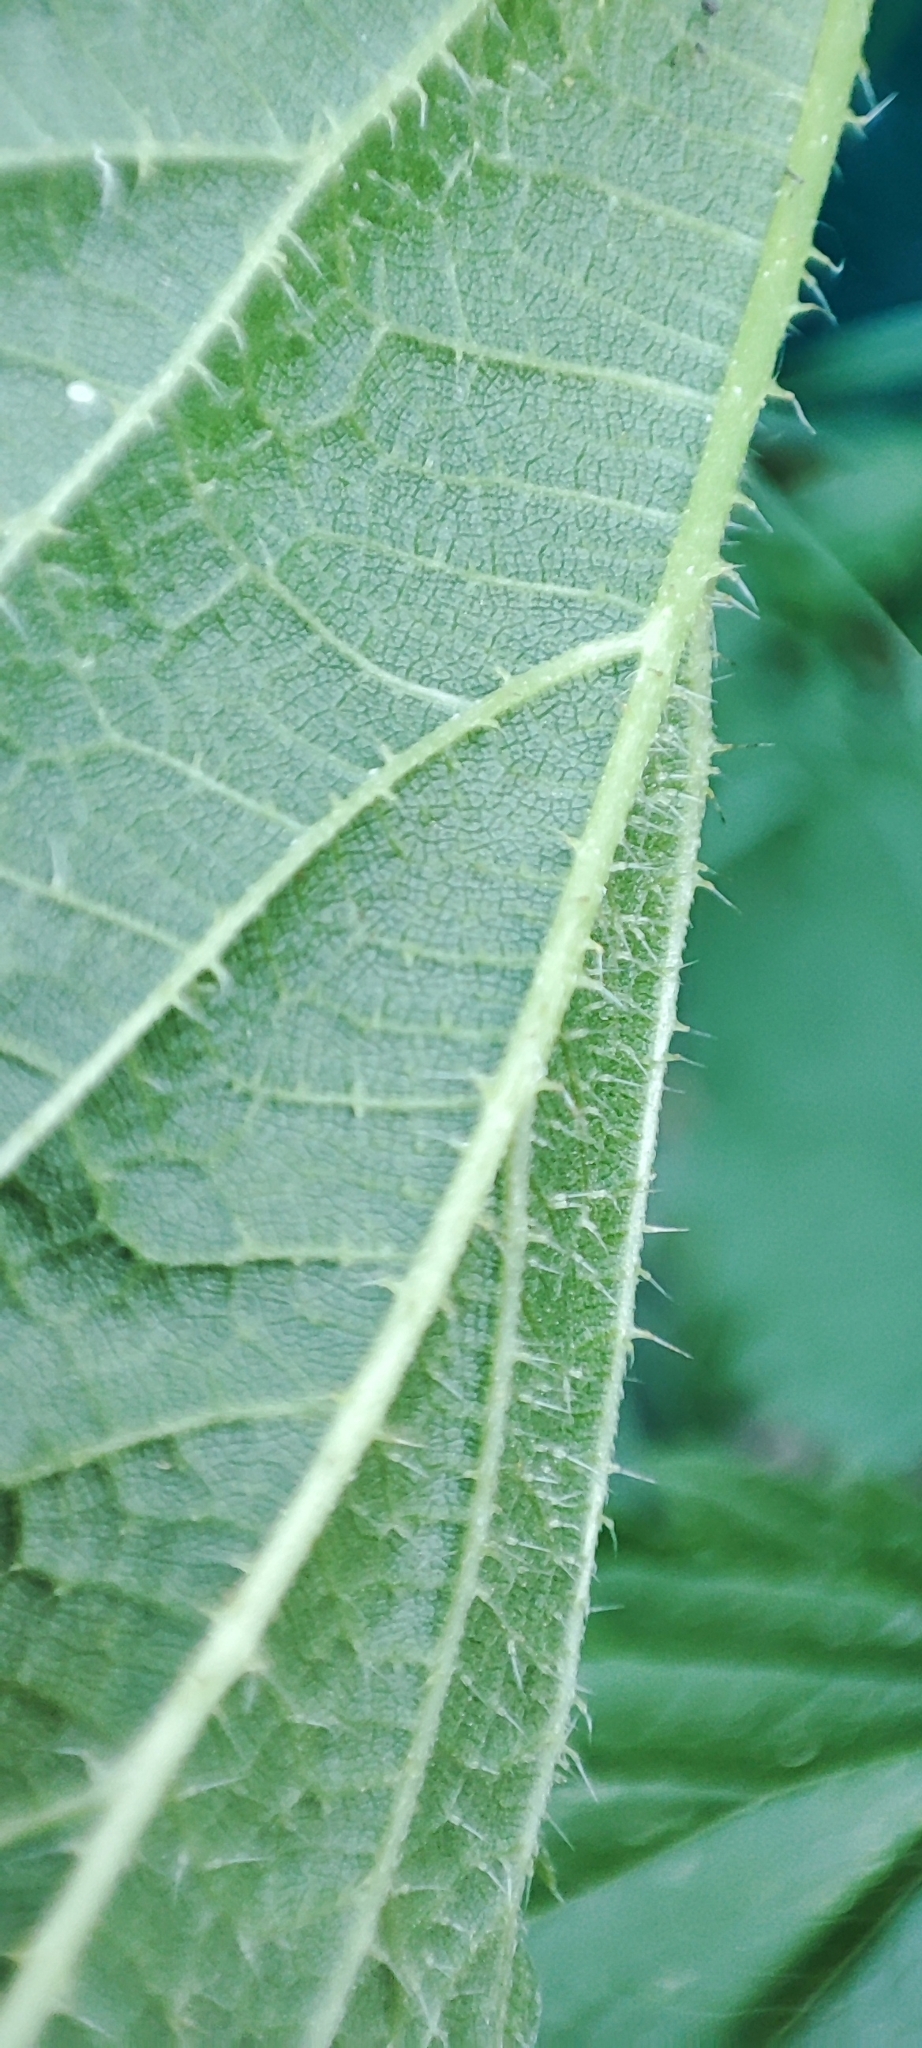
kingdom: Plantae
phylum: Tracheophyta
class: Magnoliopsida
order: Rosales
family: Urticaceae
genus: Urtica
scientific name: Urtica dioica
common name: Common nettle
